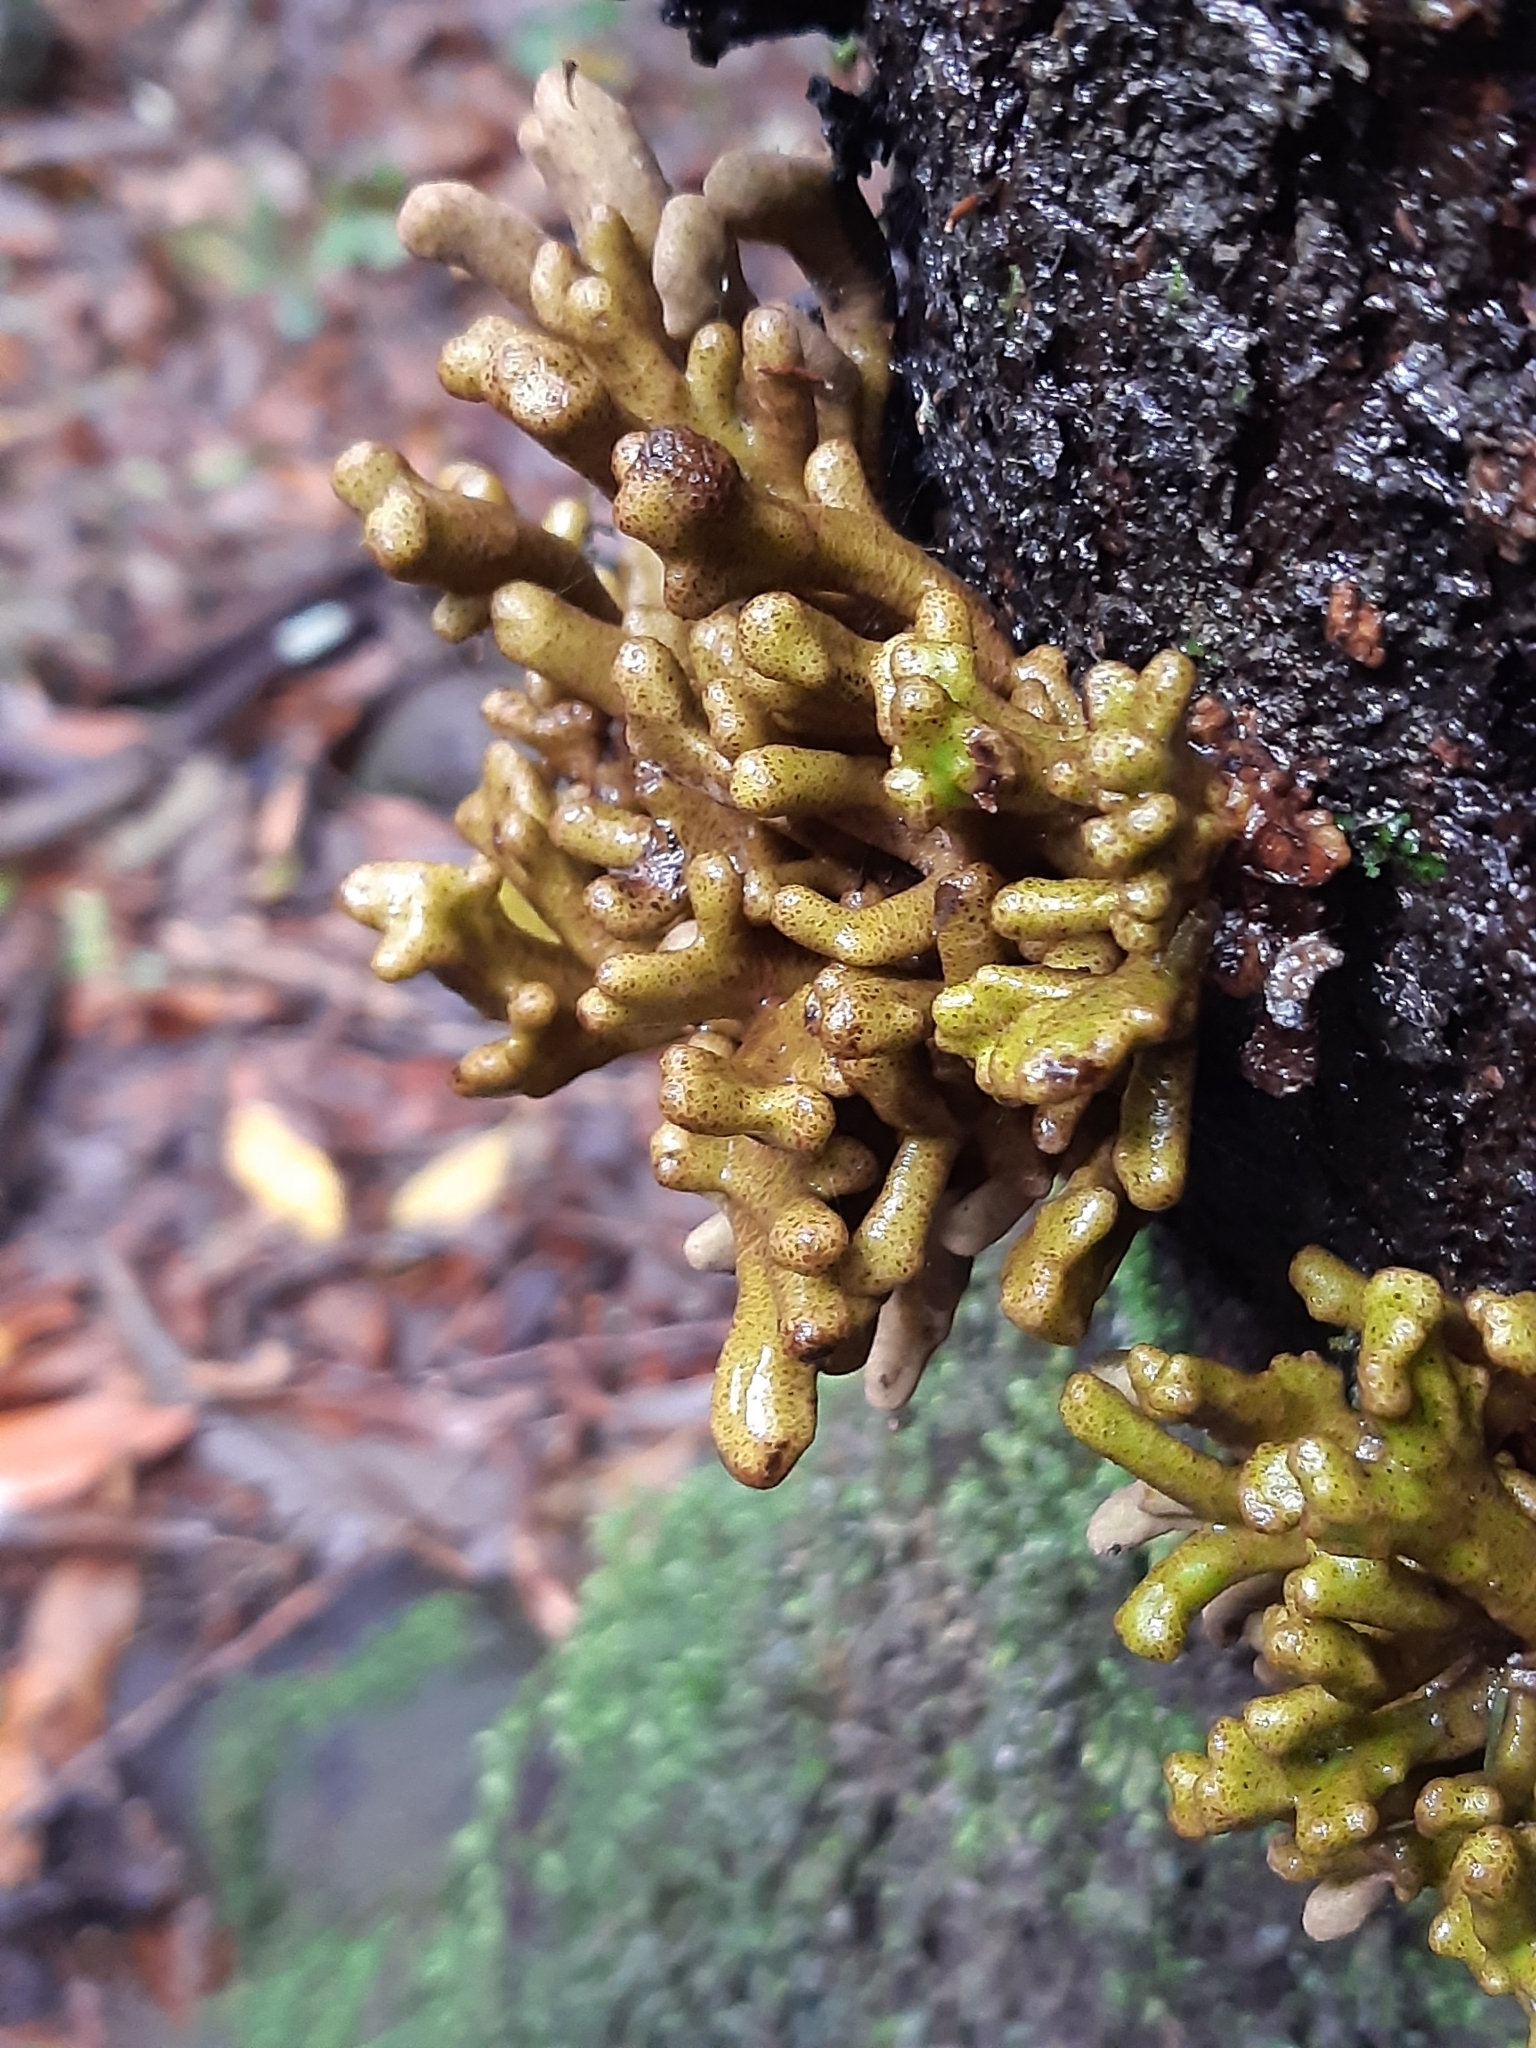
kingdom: Fungi
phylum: Basidiomycota
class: Exobasidiomycetes
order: Exobasidiales
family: Laurobasidiaceae
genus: Laurobasidium
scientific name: Laurobasidium lauri
